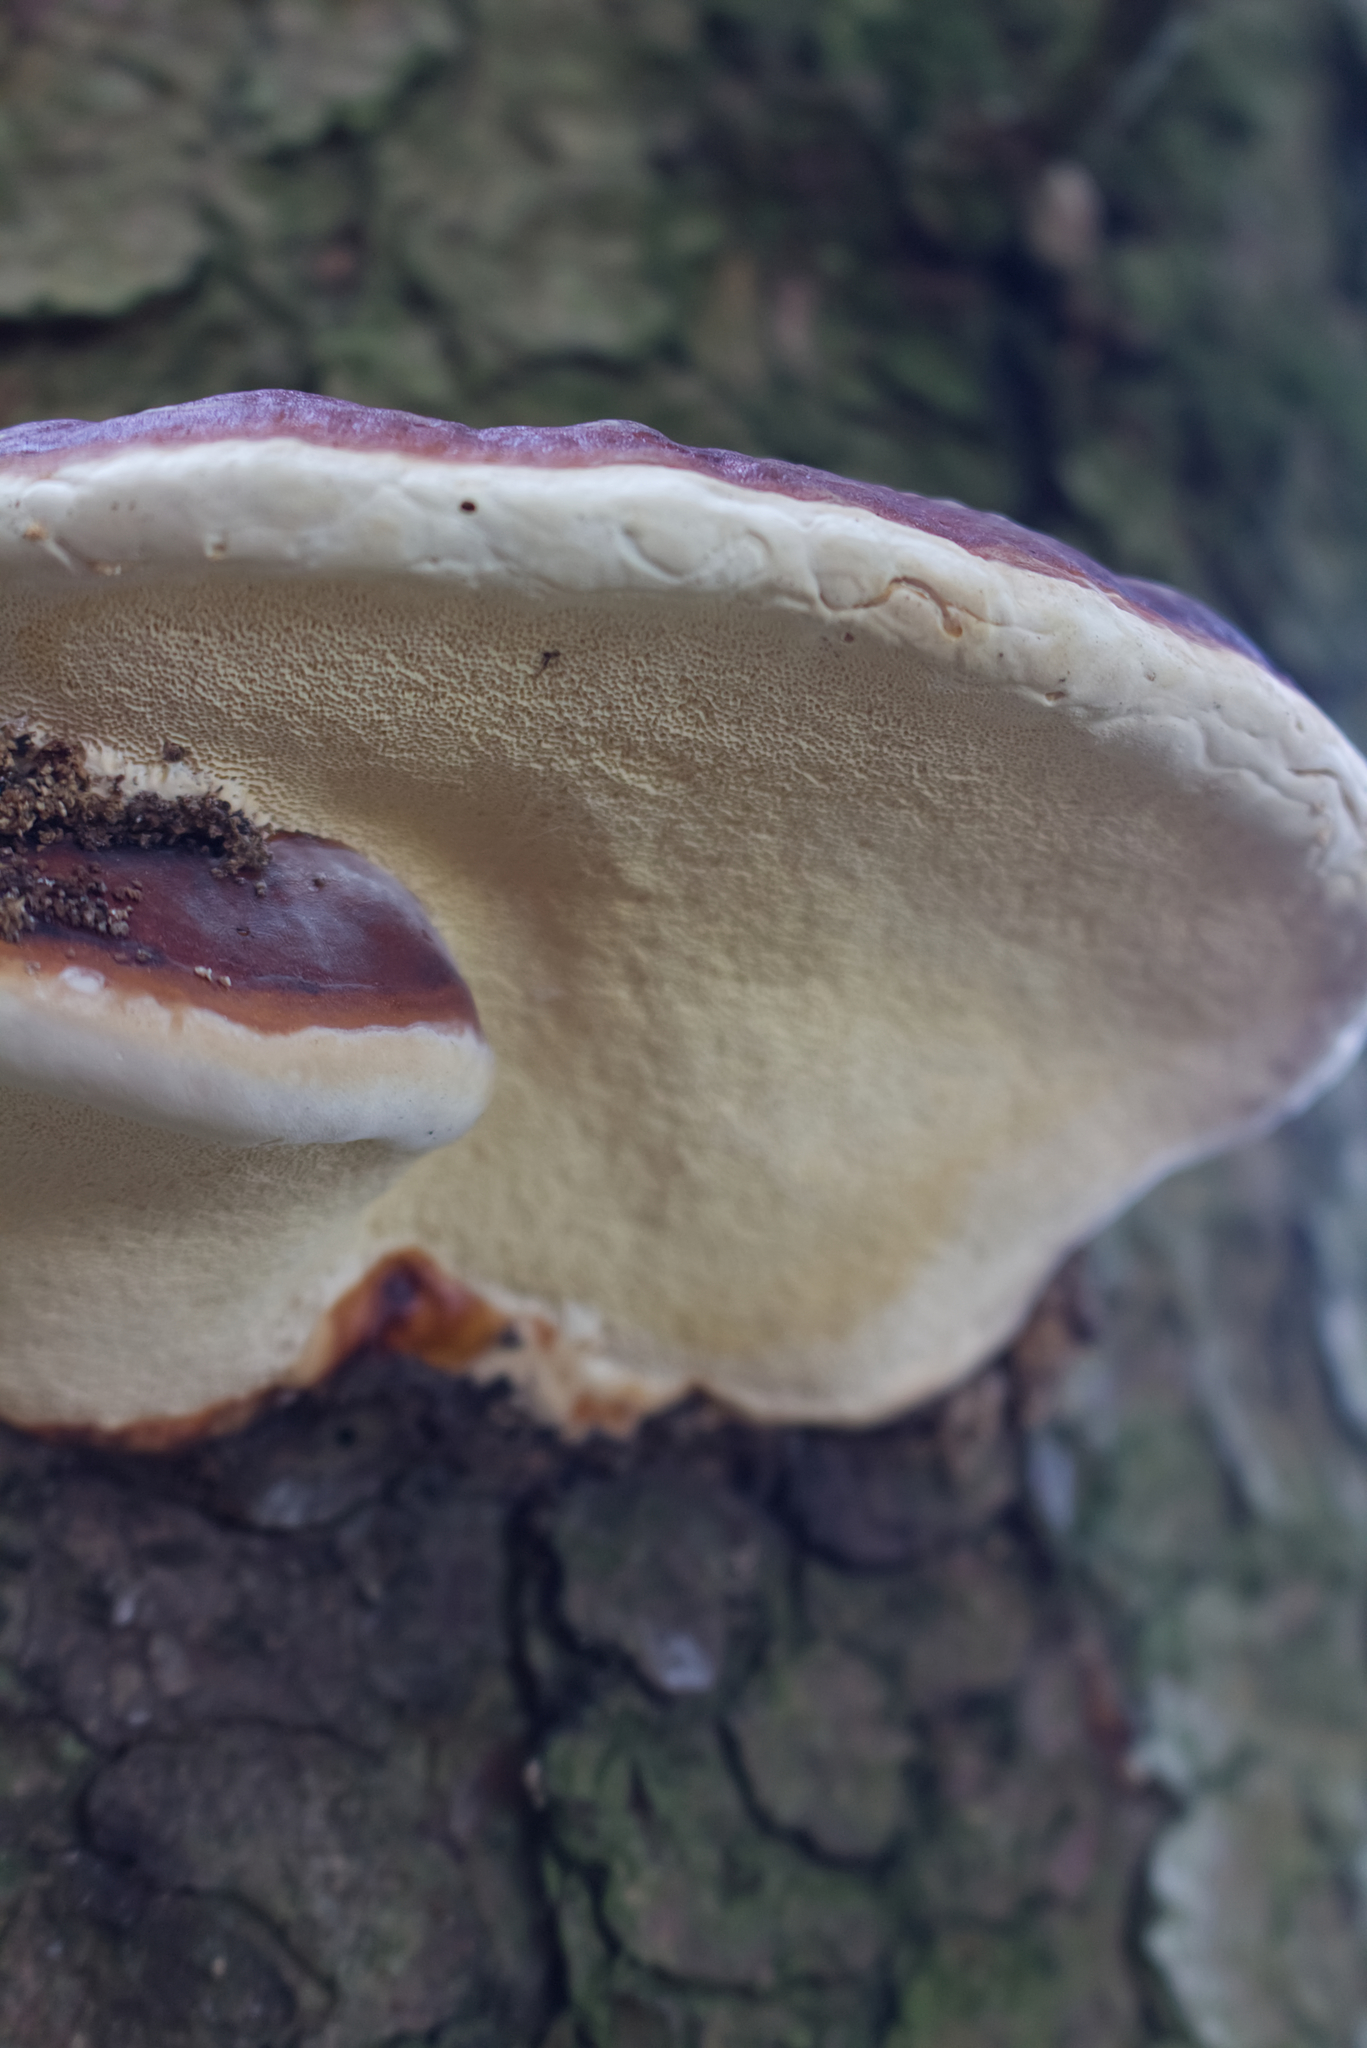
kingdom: Fungi
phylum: Basidiomycota
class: Agaricomycetes
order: Polyporales
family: Fomitopsidaceae
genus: Fomitopsis
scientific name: Fomitopsis pinicola
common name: Red-belted bracket
